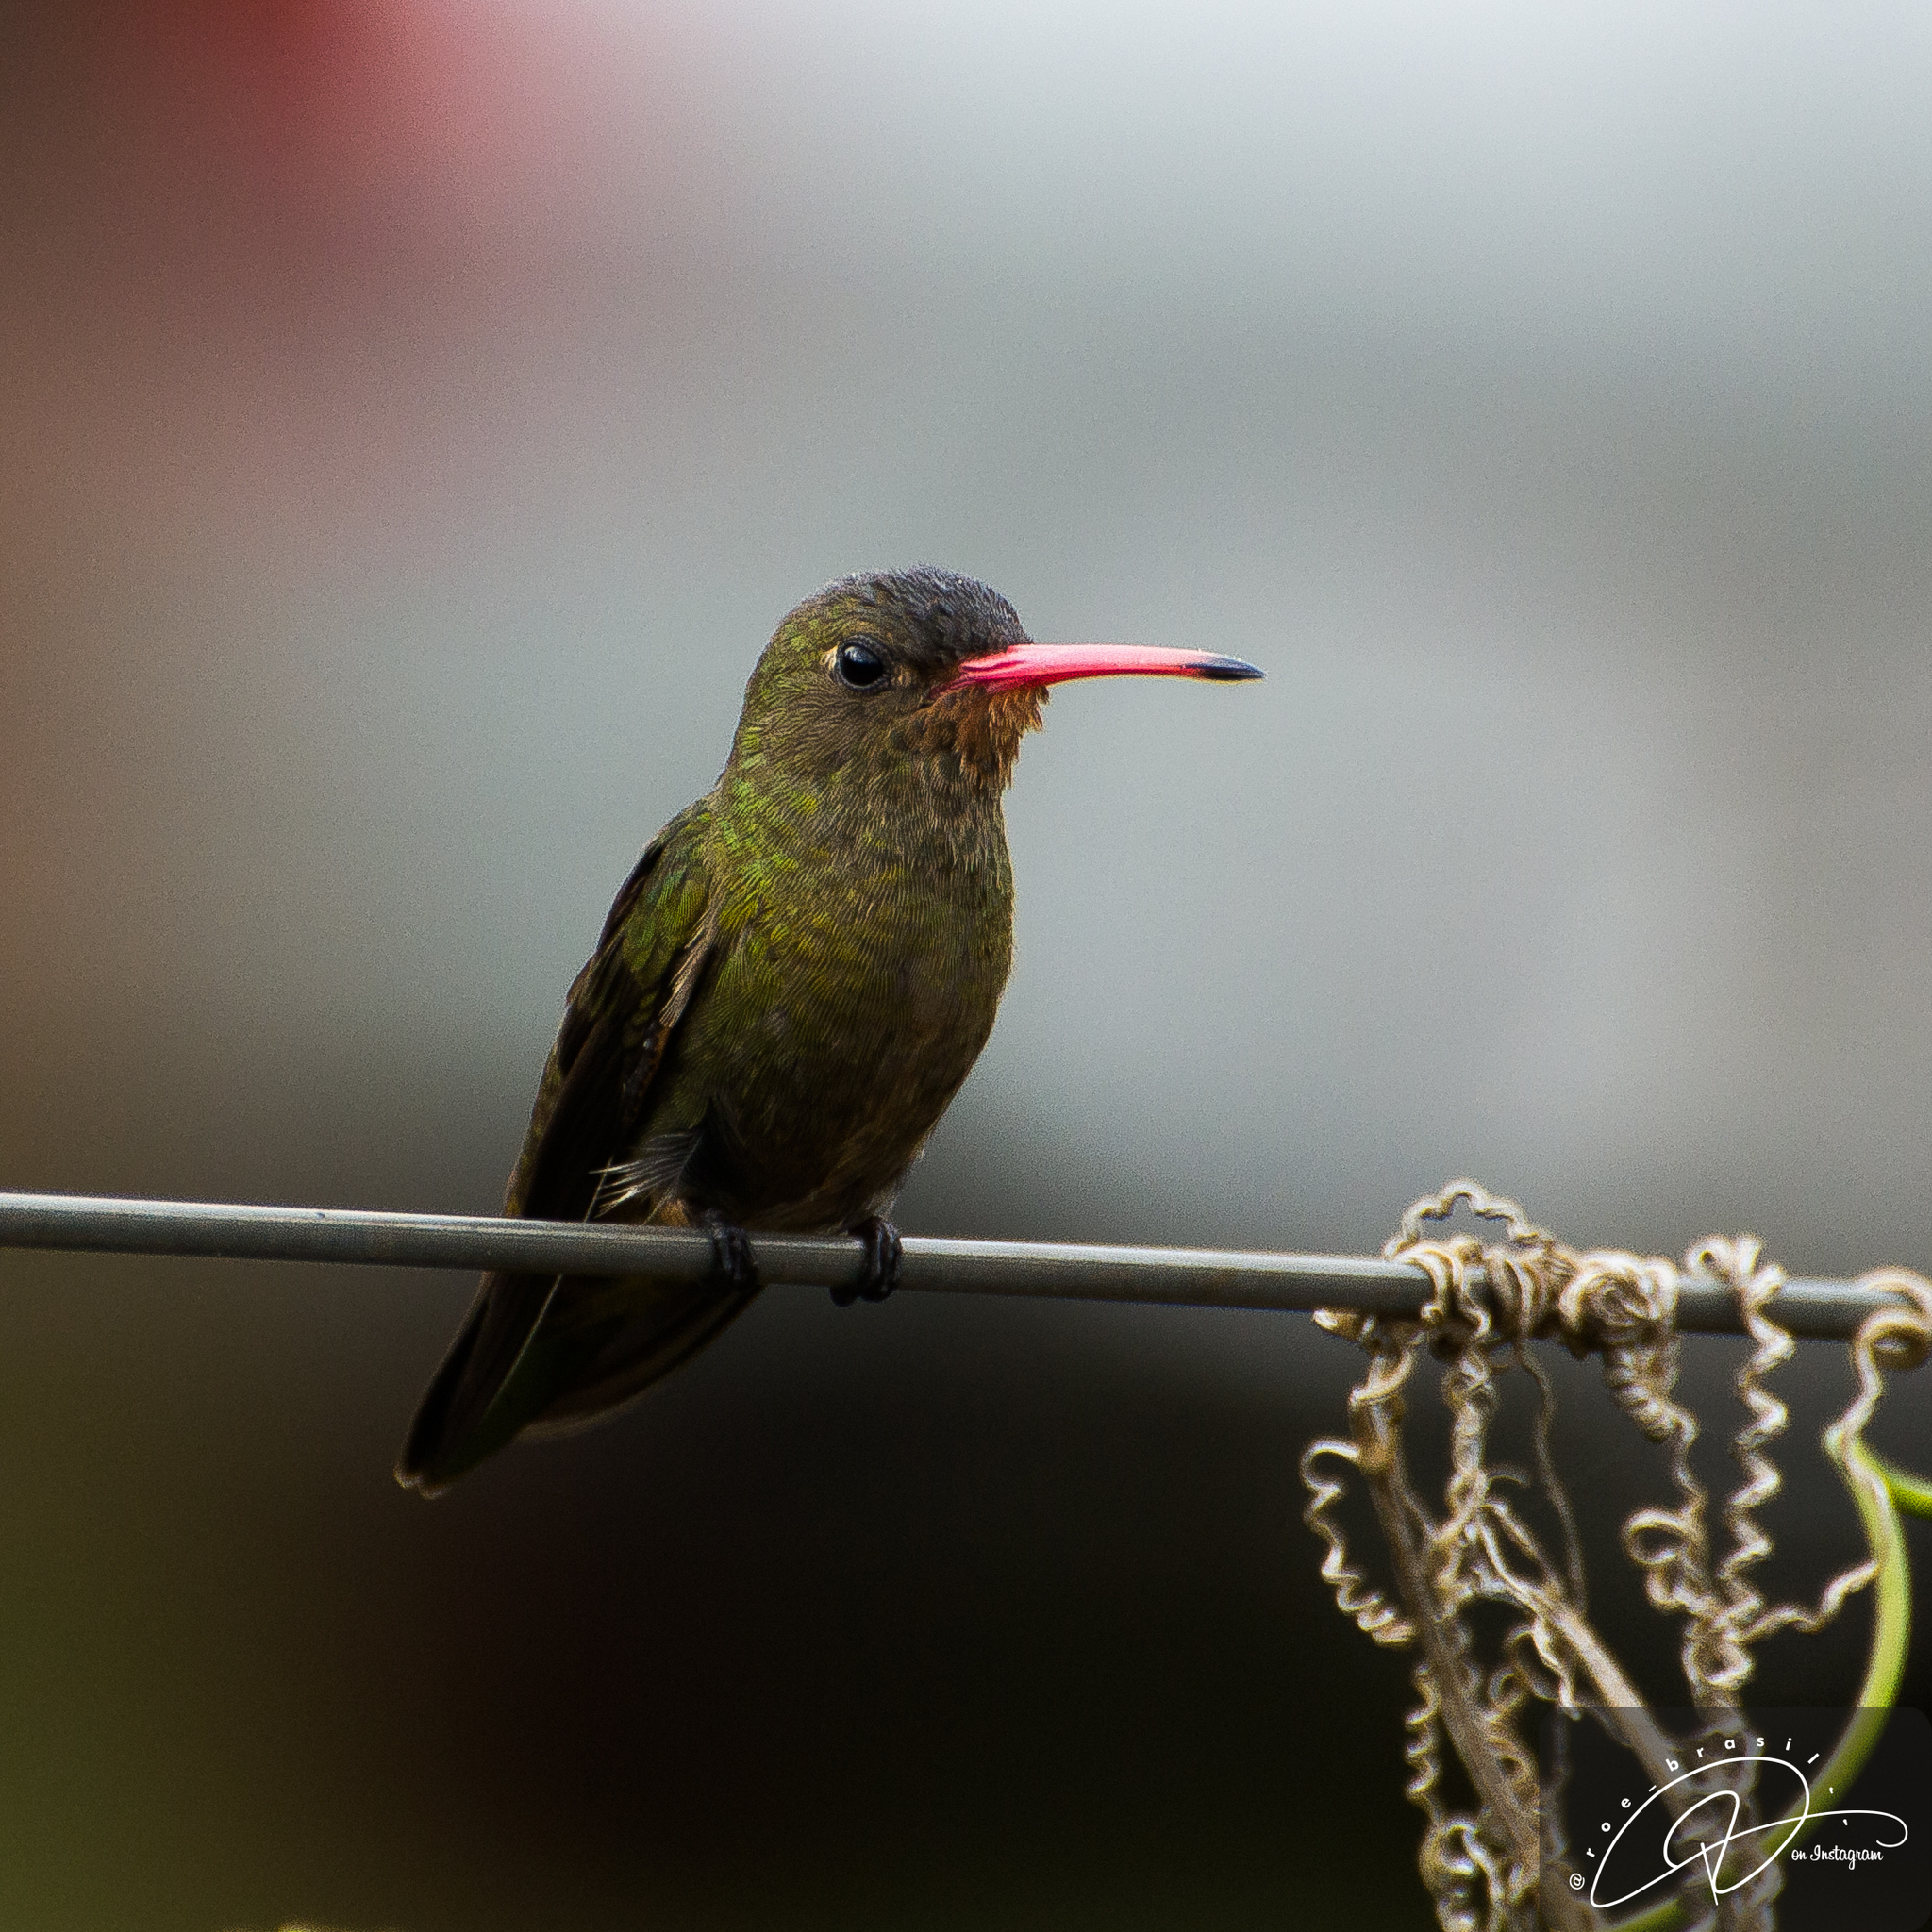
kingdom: Animalia
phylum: Chordata
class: Aves
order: Apodiformes
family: Trochilidae
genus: Hylocharis
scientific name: Hylocharis chrysura
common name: Gilded sapphire
